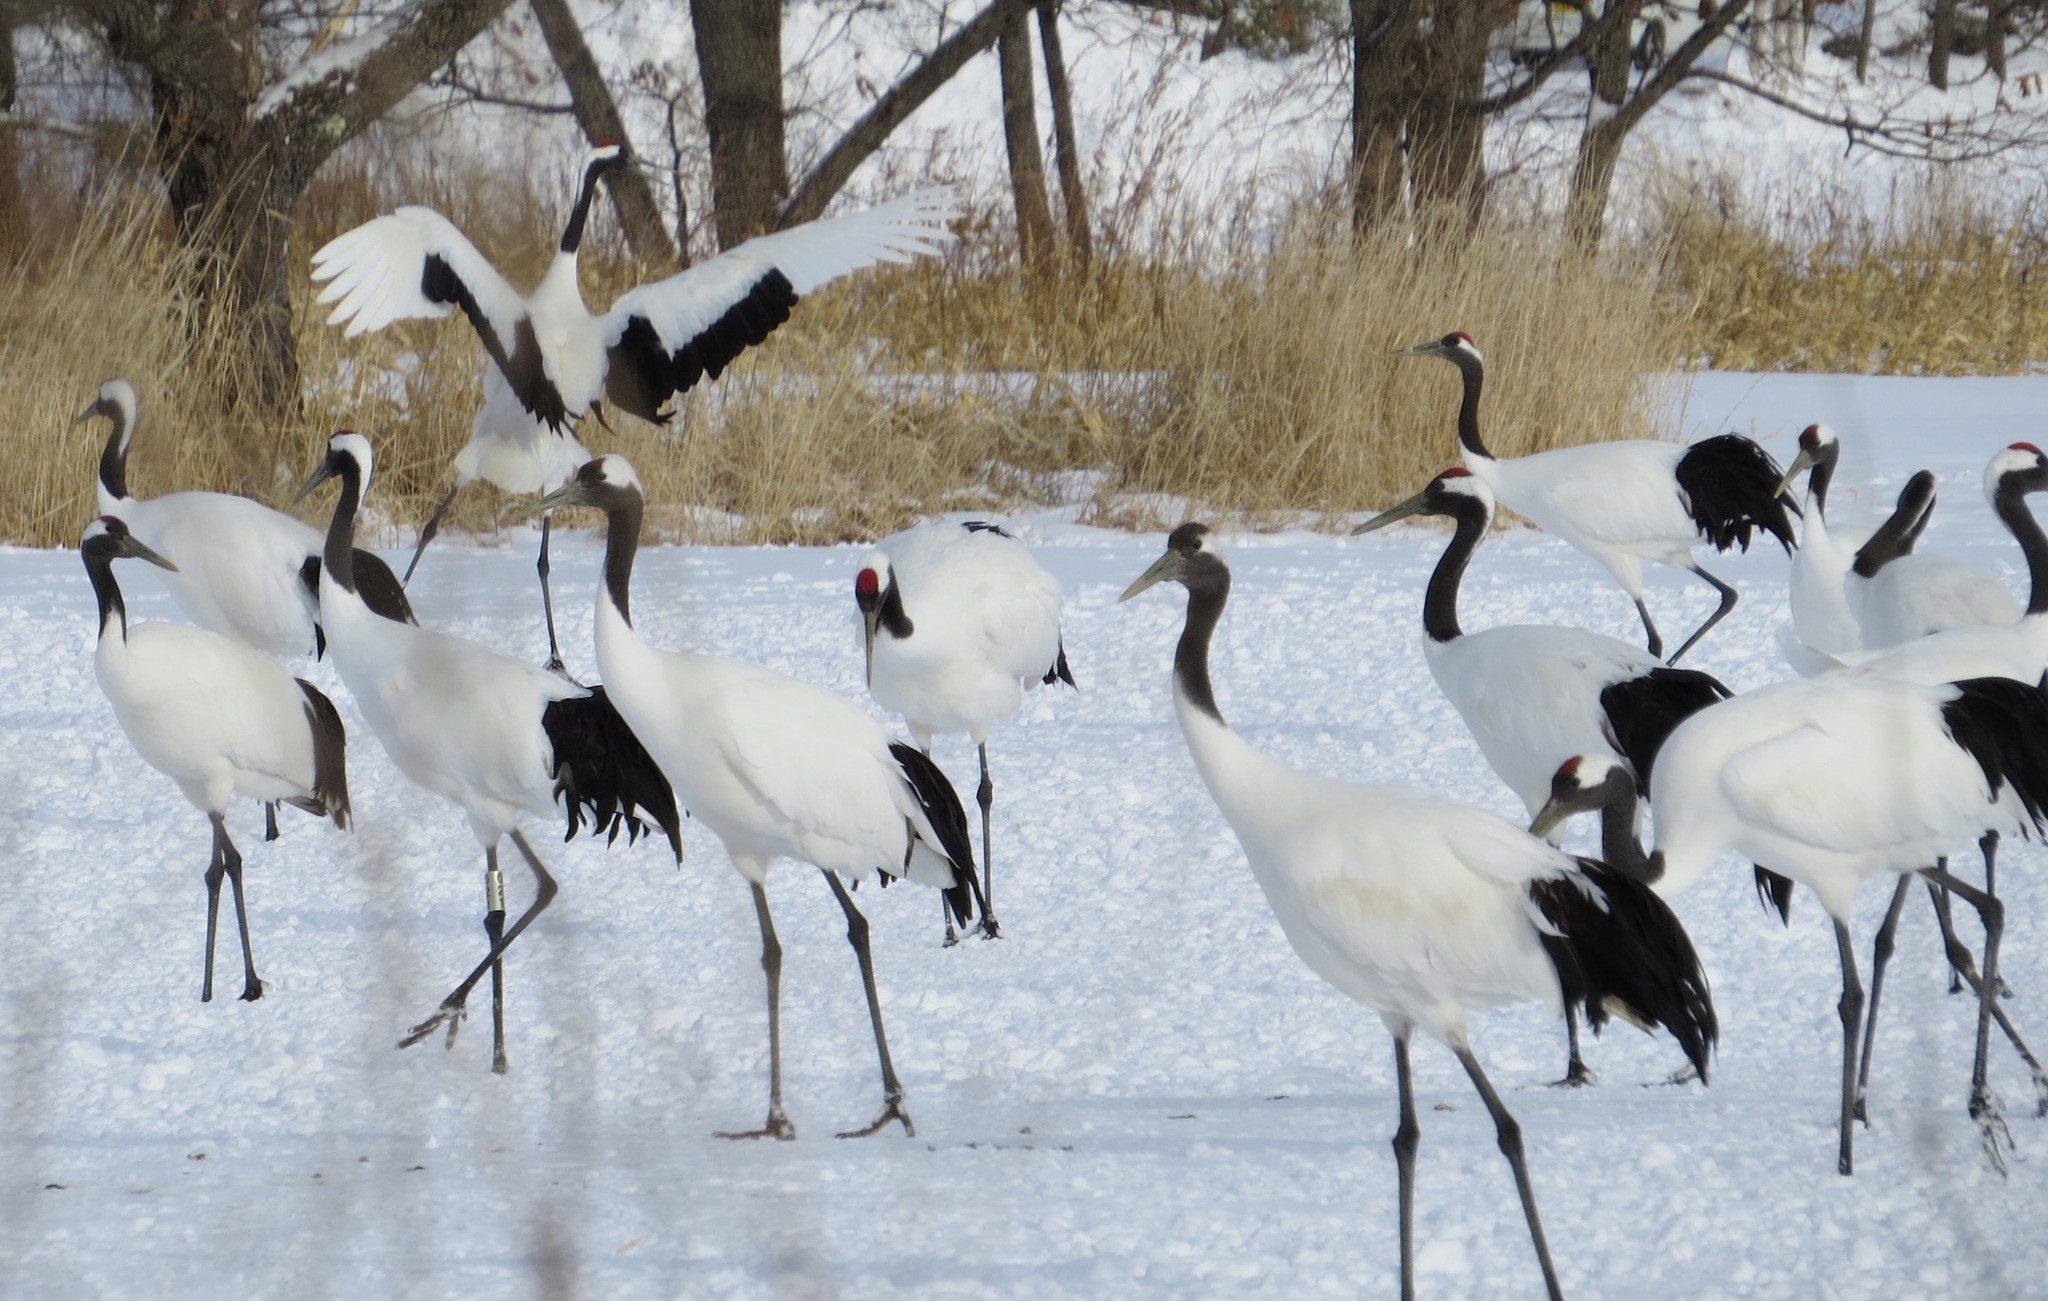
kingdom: Animalia
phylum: Chordata
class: Aves
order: Gruiformes
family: Gruidae
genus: Grus
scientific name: Grus japonensis
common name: Red-crowned crane
